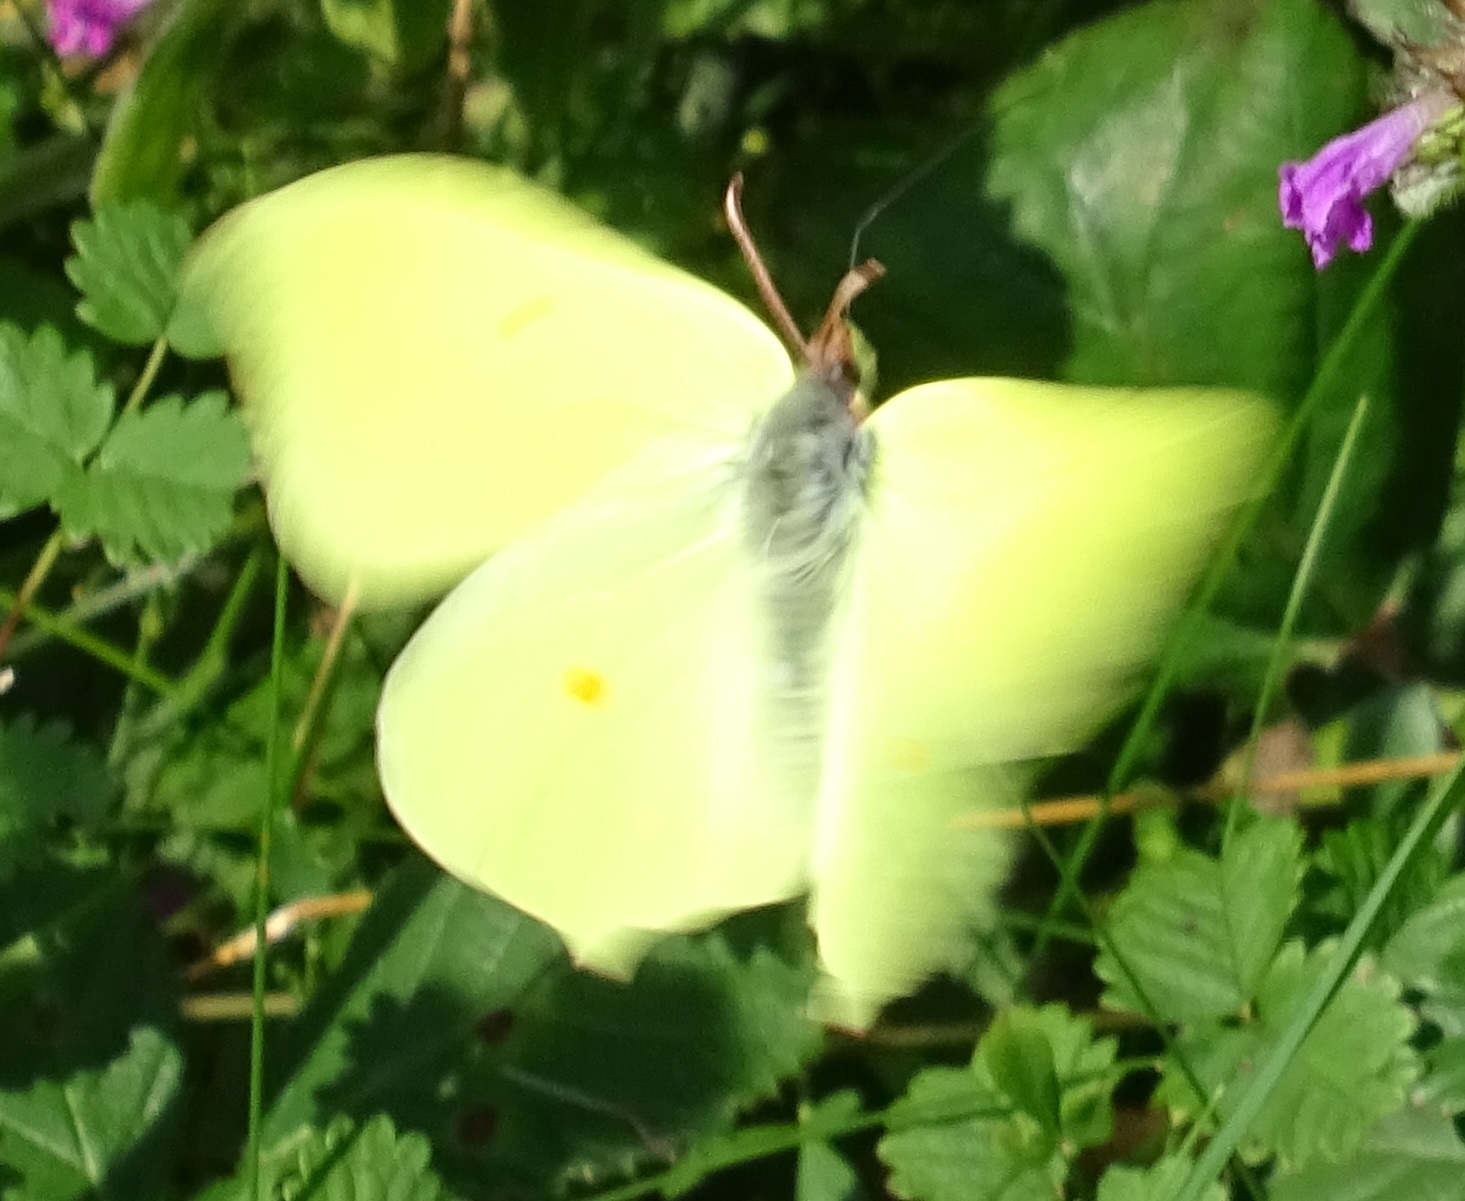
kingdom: Animalia
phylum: Arthropoda
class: Insecta
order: Lepidoptera
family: Pieridae
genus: Gonepteryx
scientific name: Gonepteryx rhamni
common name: Brimstone
